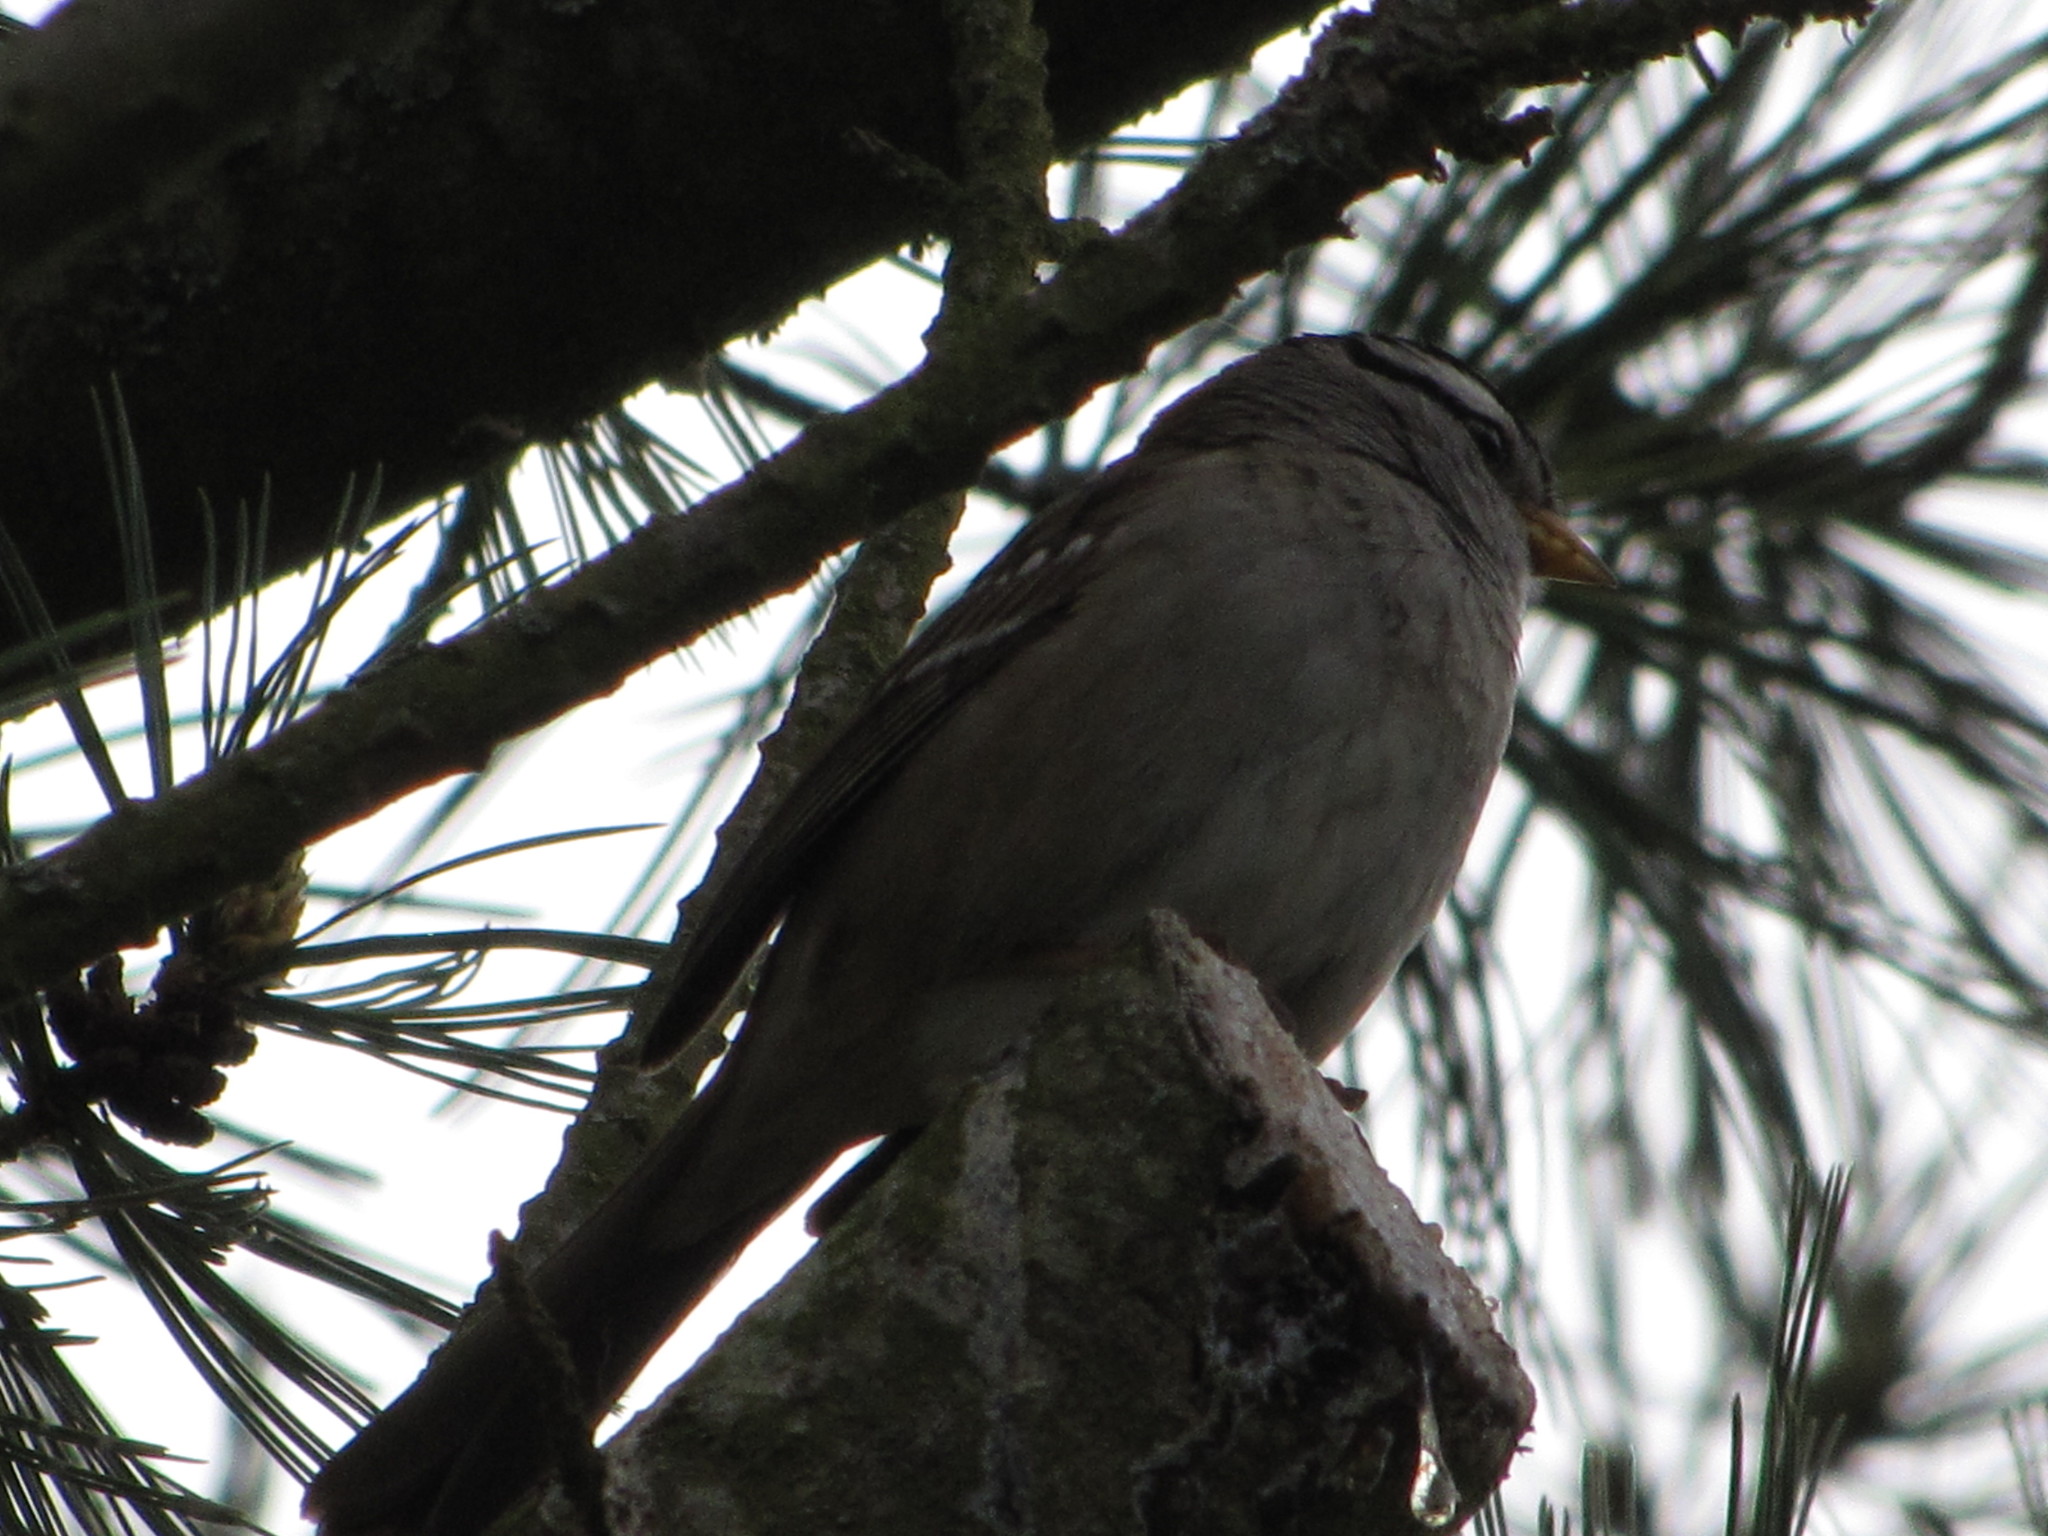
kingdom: Animalia
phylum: Chordata
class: Aves
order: Passeriformes
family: Passerellidae
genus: Zonotrichia
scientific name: Zonotrichia leucophrys
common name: White-crowned sparrow
